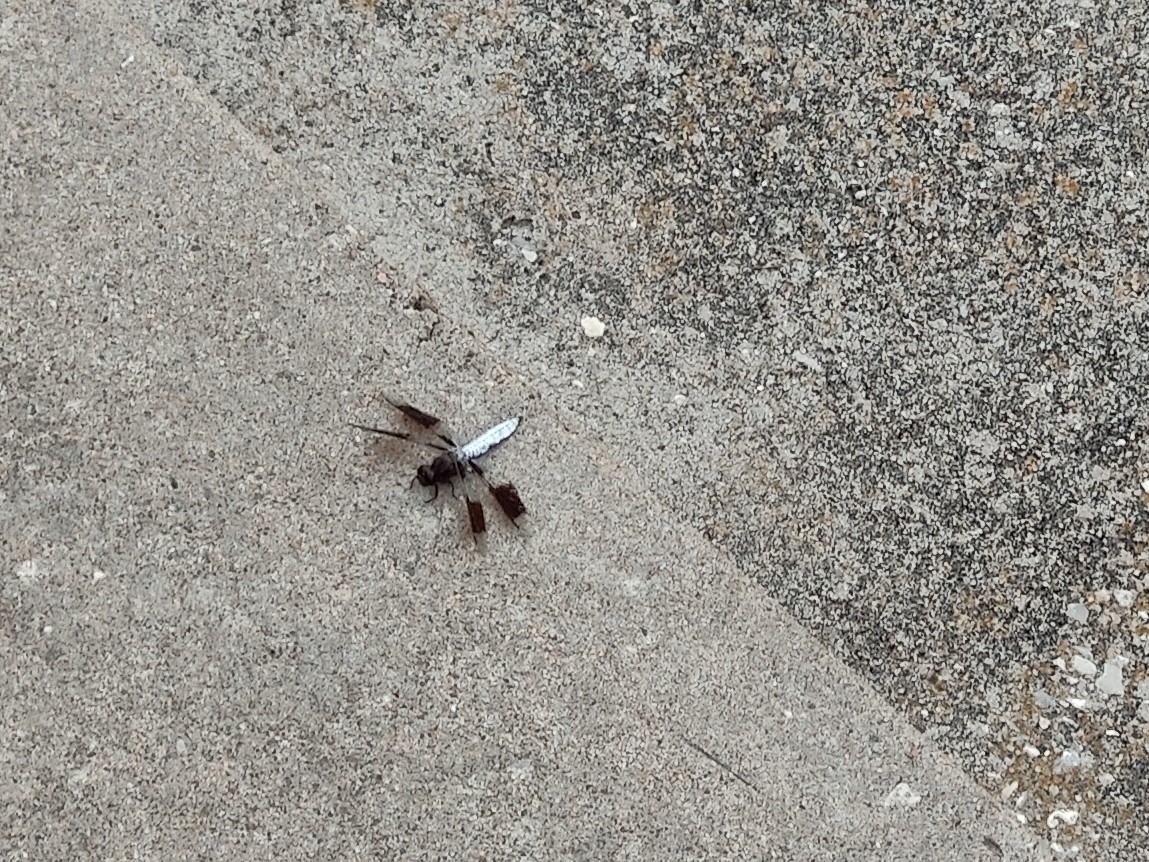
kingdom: Animalia
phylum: Arthropoda
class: Insecta
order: Odonata
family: Libellulidae
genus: Plathemis
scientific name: Plathemis lydia
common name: Common whitetail
